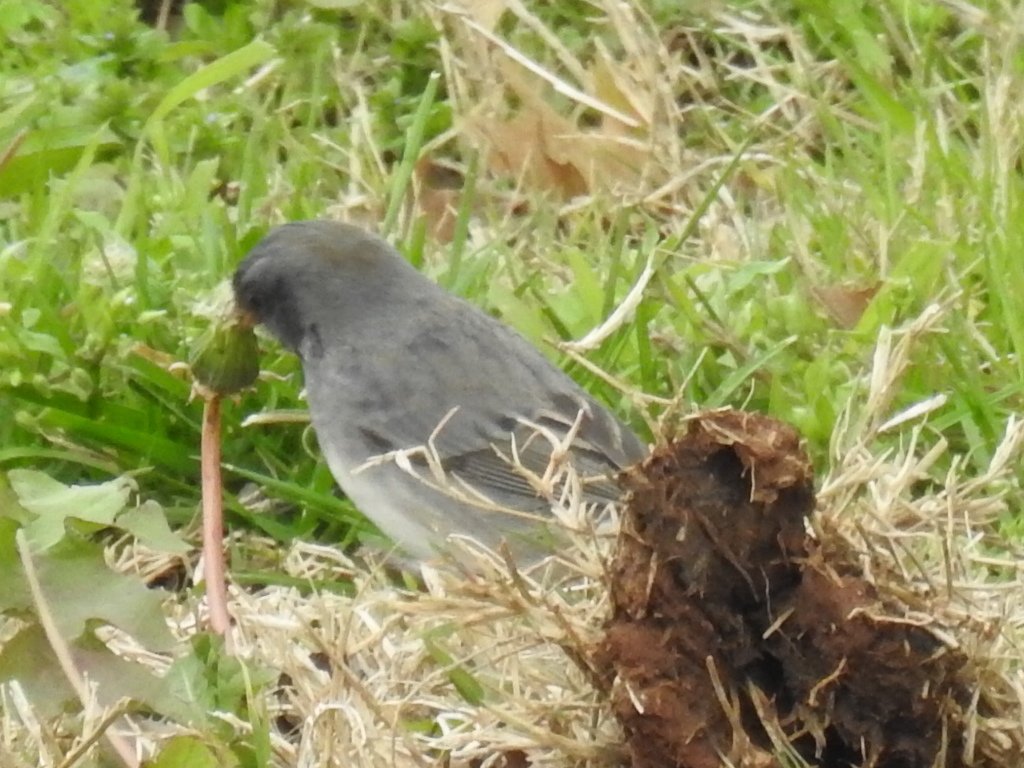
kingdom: Animalia
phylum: Chordata
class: Aves
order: Passeriformes
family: Passerellidae
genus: Junco
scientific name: Junco hyemalis
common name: Dark-eyed junco
